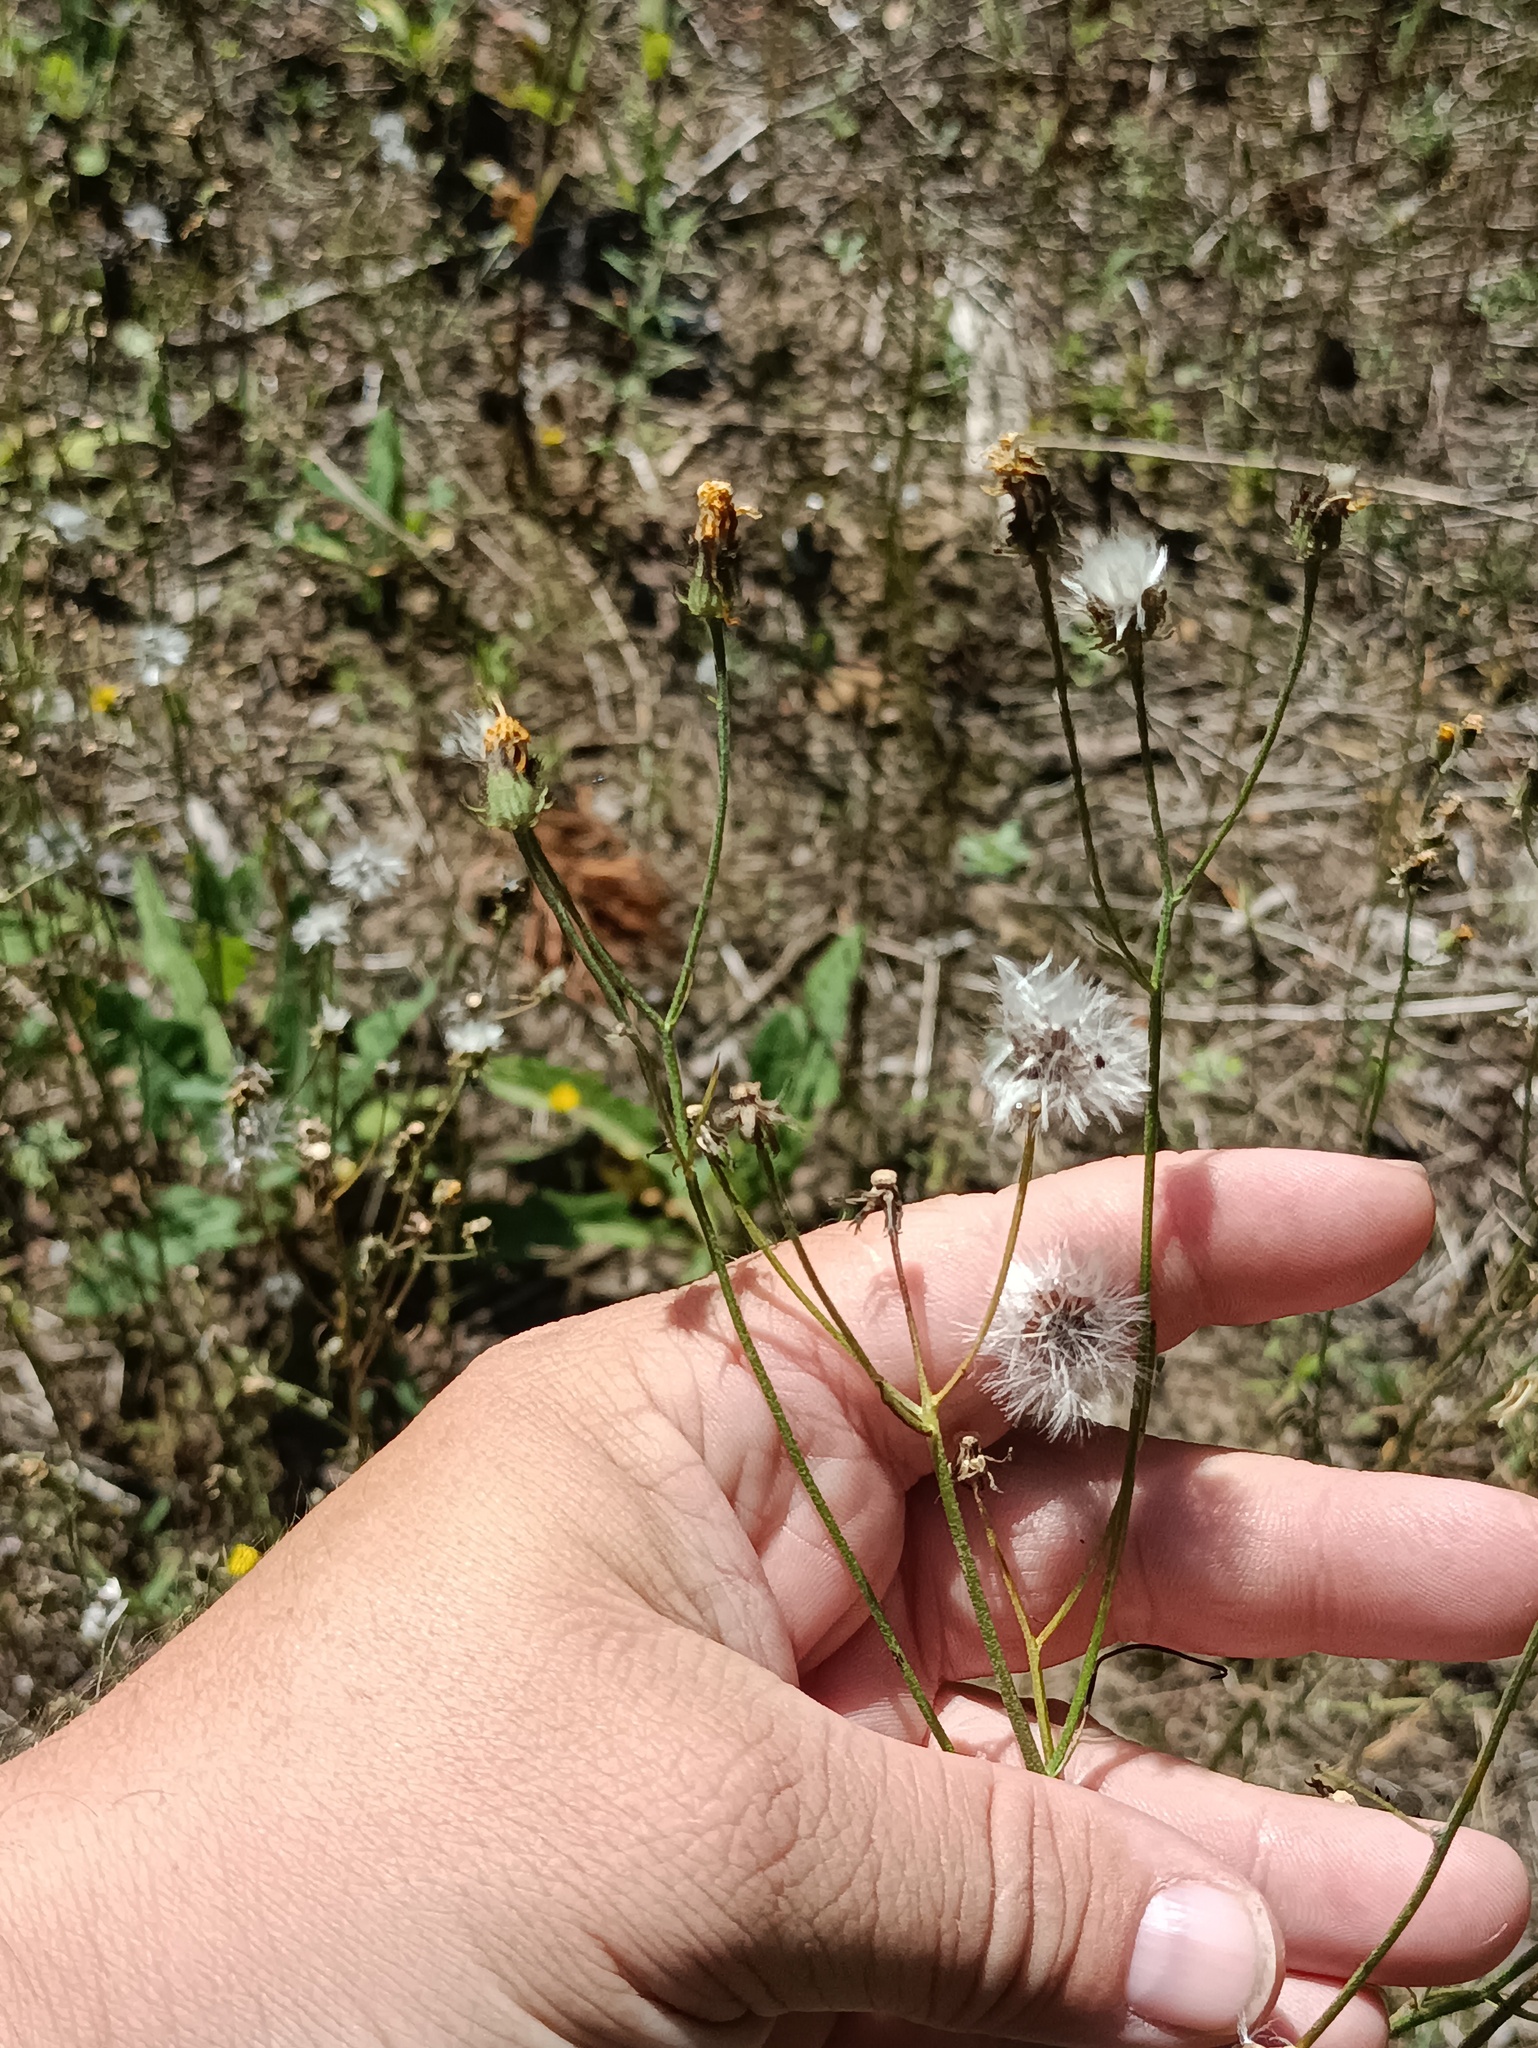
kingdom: Plantae
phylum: Tracheophyta
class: Magnoliopsida
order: Asterales
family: Asteraceae
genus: Crepis
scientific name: Crepis tectorum
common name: Narrow-leaved hawk's-beard
